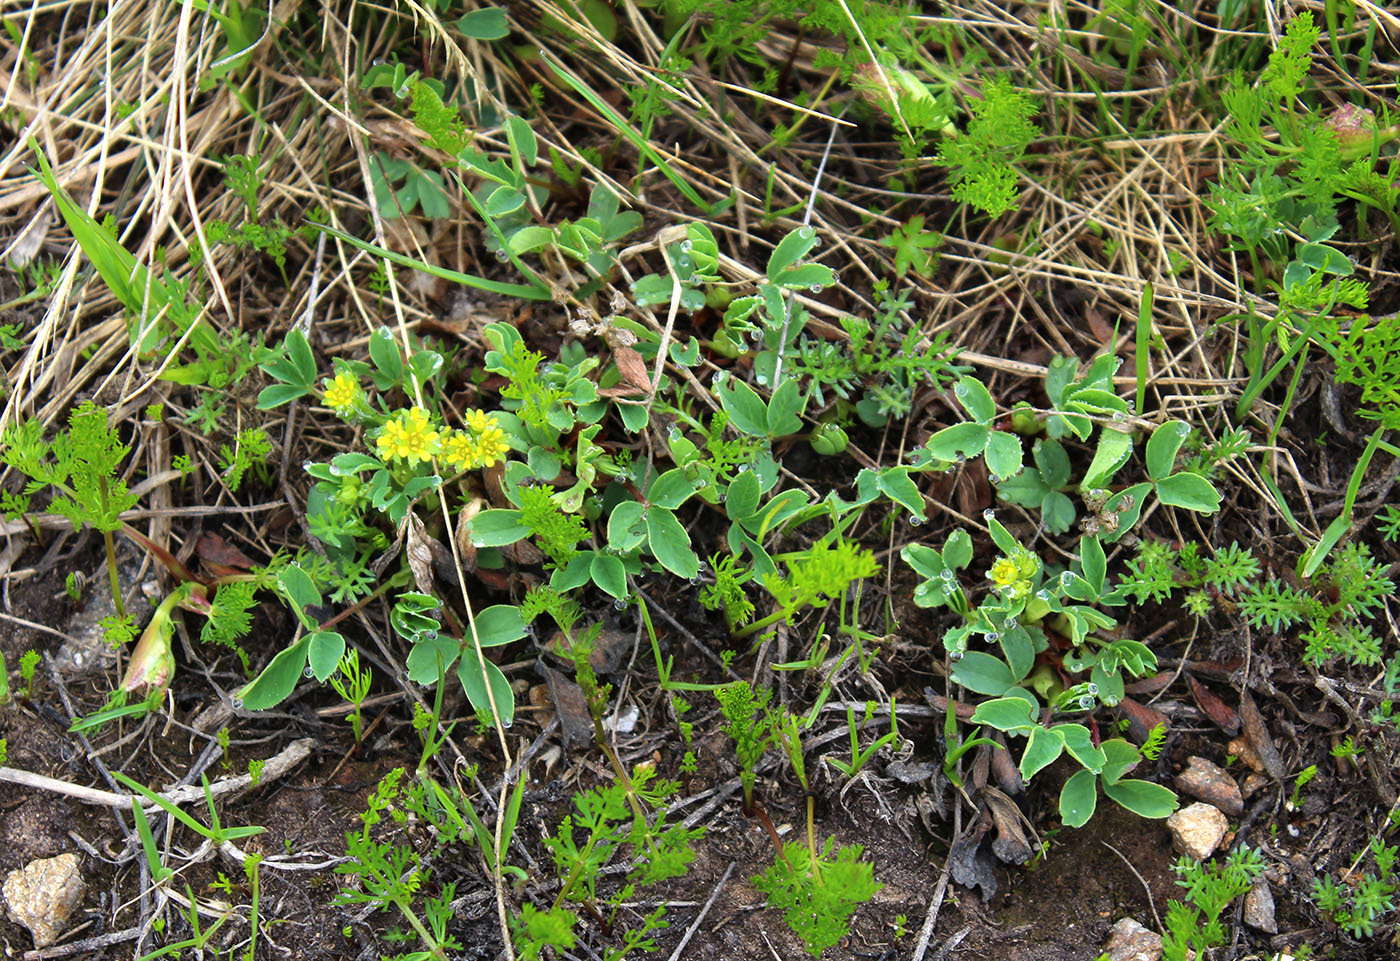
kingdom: Plantae
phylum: Tracheophyta
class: Magnoliopsida
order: Rosales
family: Rosaceae
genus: Sibbaldia
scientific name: Sibbaldia parviflora
